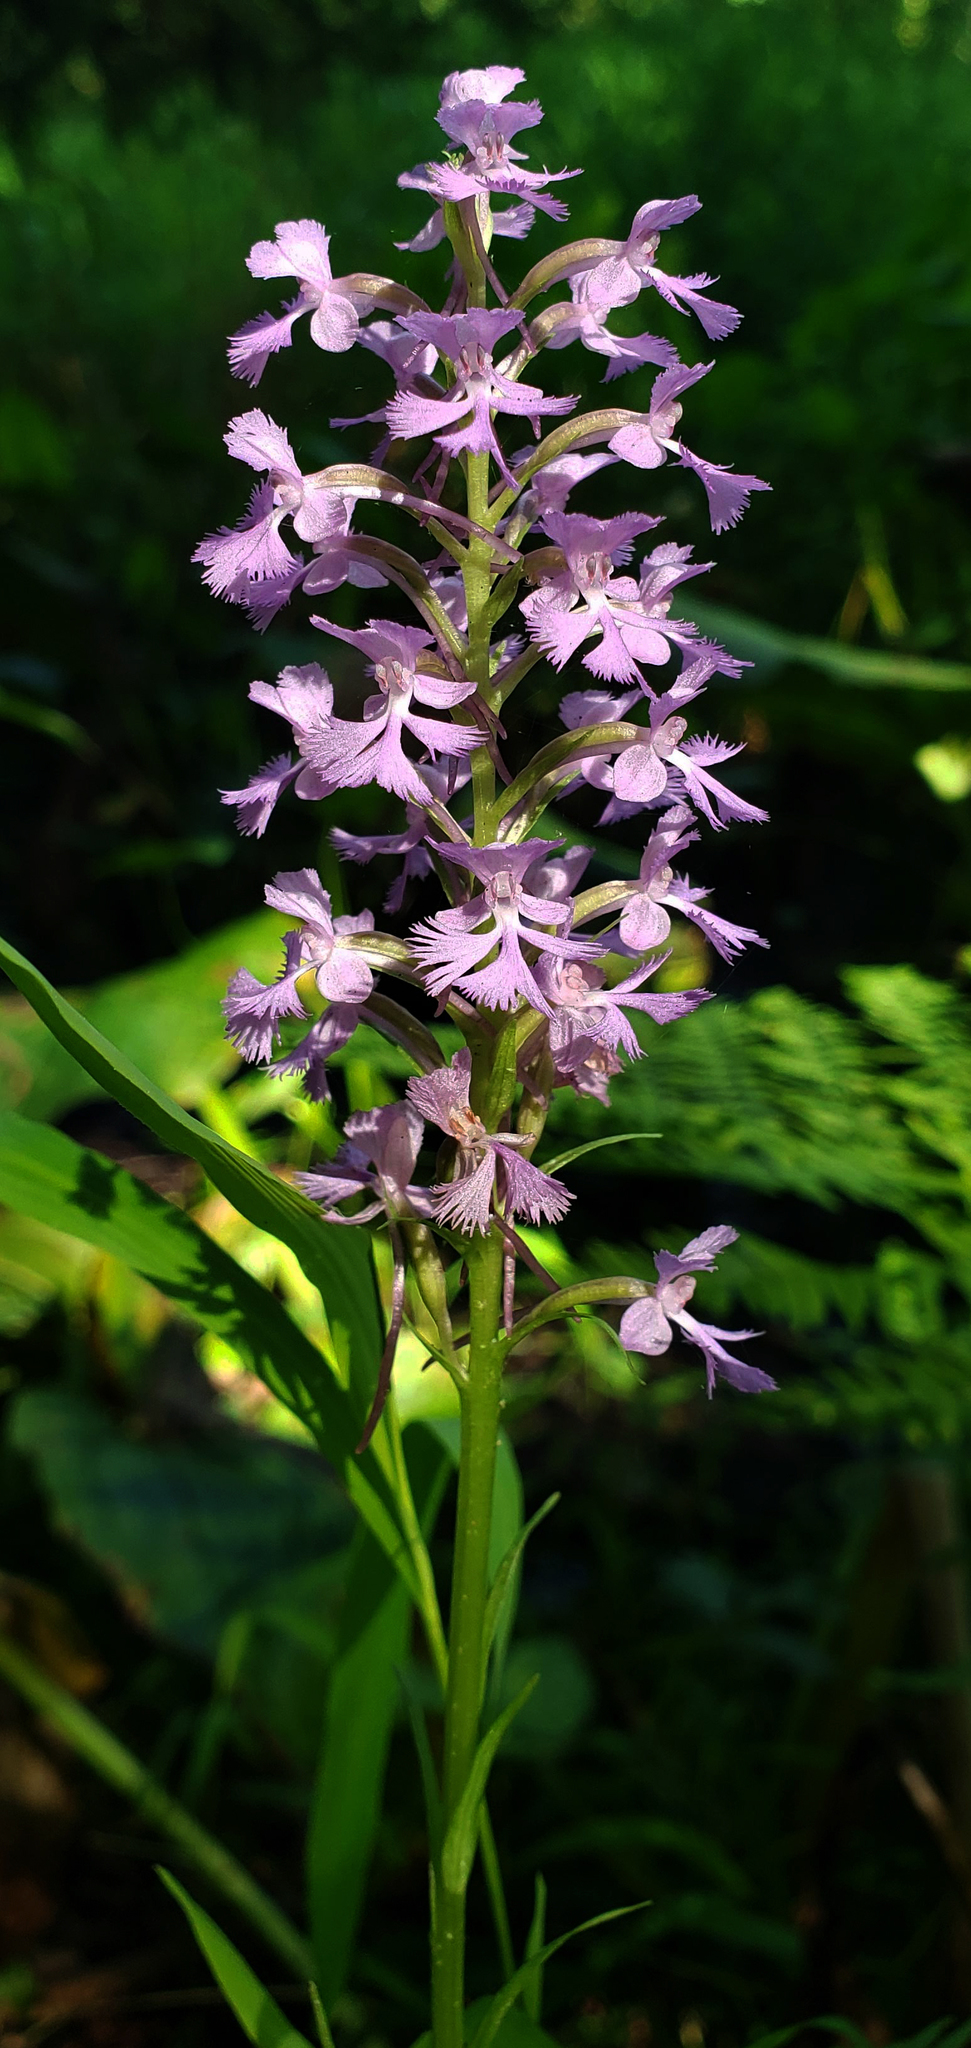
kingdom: Plantae
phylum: Tracheophyta
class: Liliopsida
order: Asparagales
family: Orchidaceae
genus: Platanthera
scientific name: Platanthera psycodes
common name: Lesser purple fringed orchid
